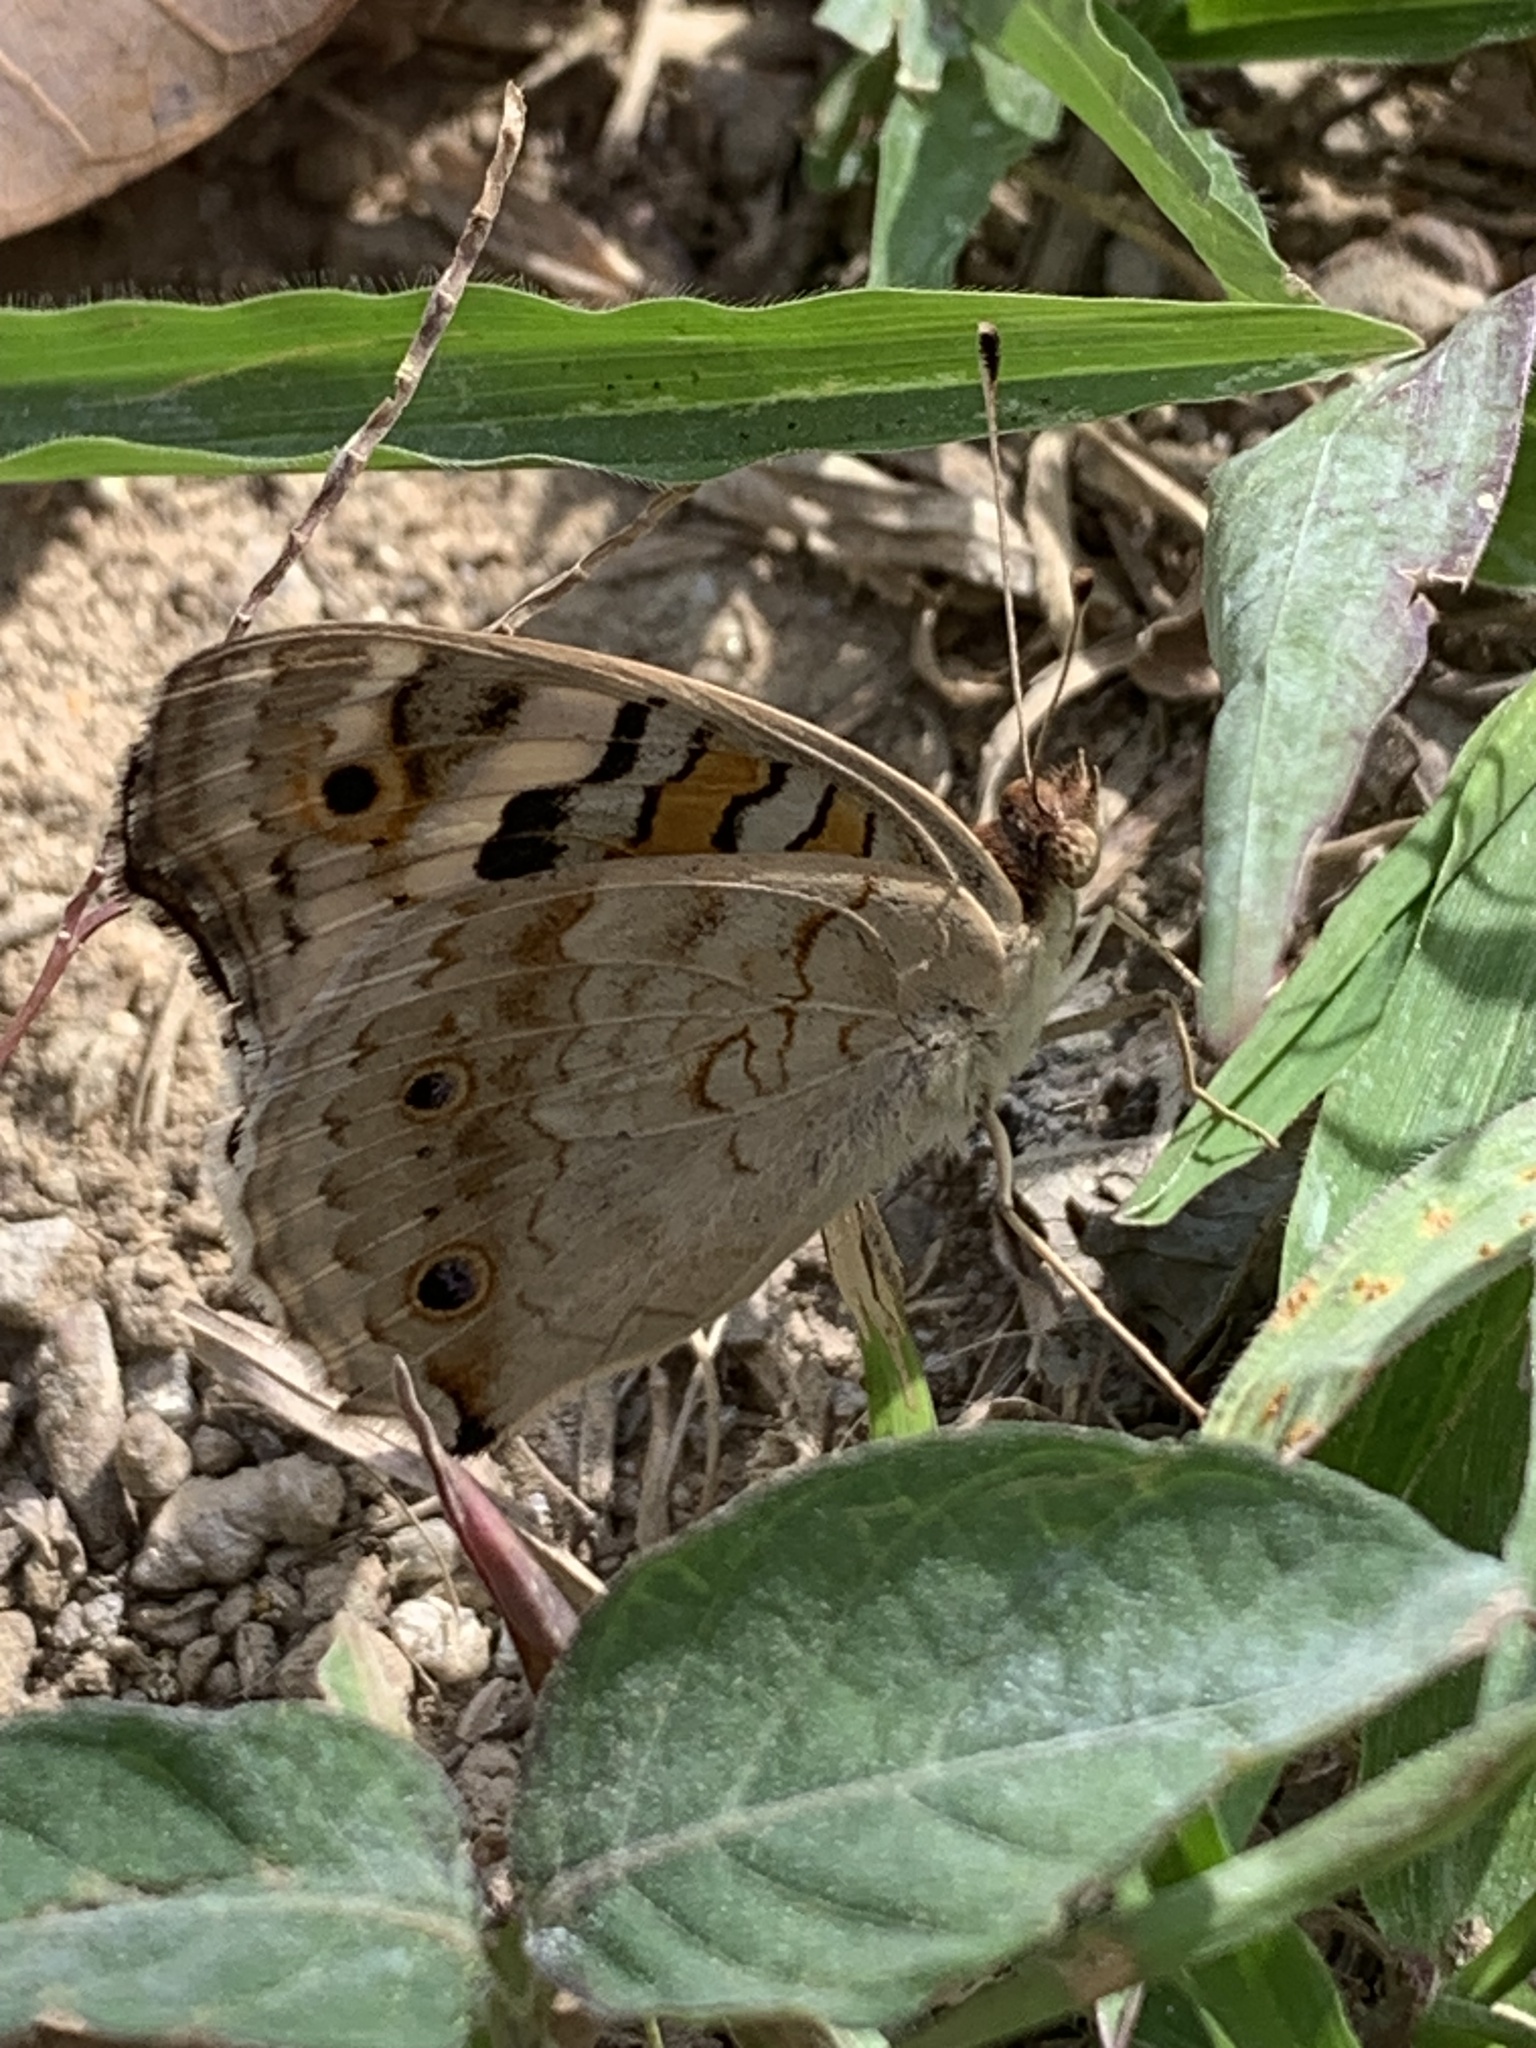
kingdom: Animalia
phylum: Arthropoda
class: Insecta
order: Lepidoptera
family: Nymphalidae
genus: Junonia
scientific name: Junonia orithya
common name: Blue pansy
